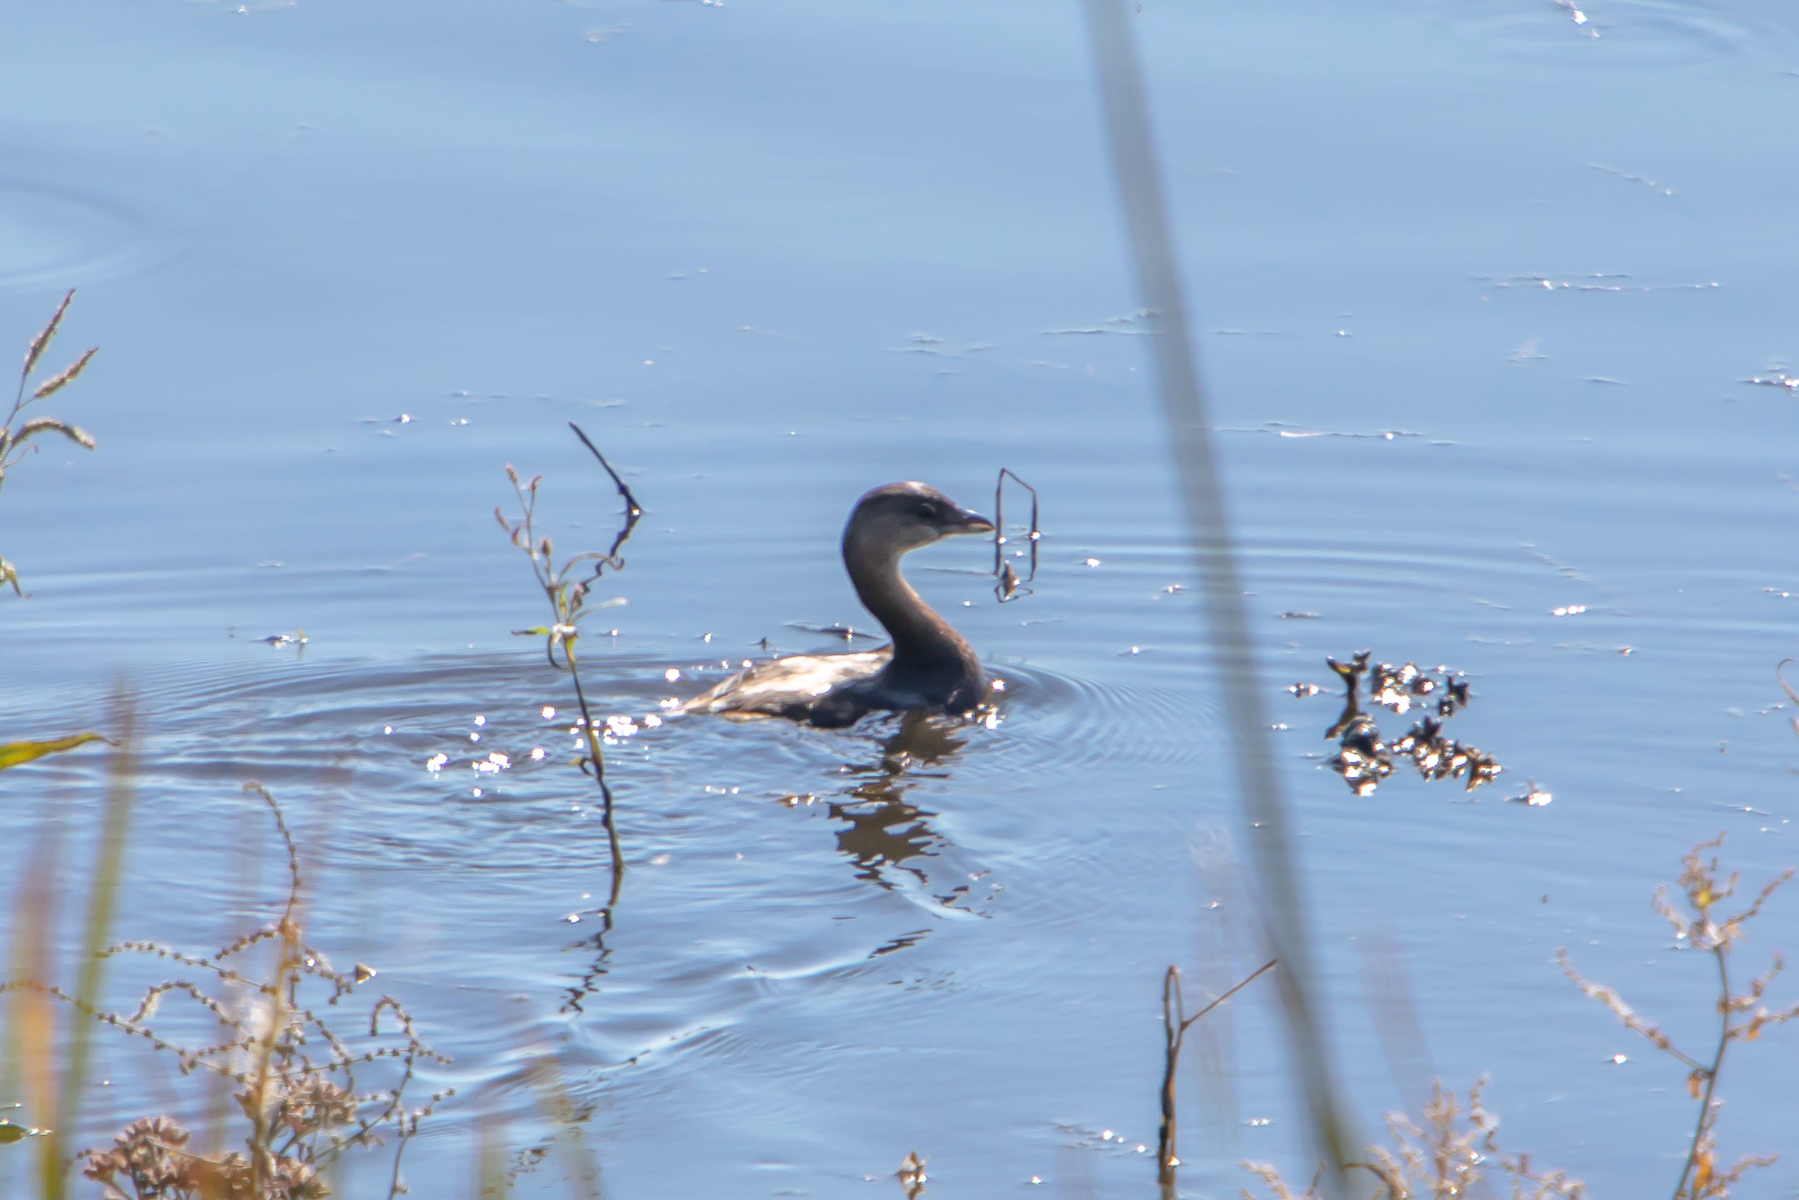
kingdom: Animalia
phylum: Chordata
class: Aves
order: Podicipediformes
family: Podicipedidae
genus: Podilymbus
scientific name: Podilymbus podiceps
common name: Pied-billed grebe
